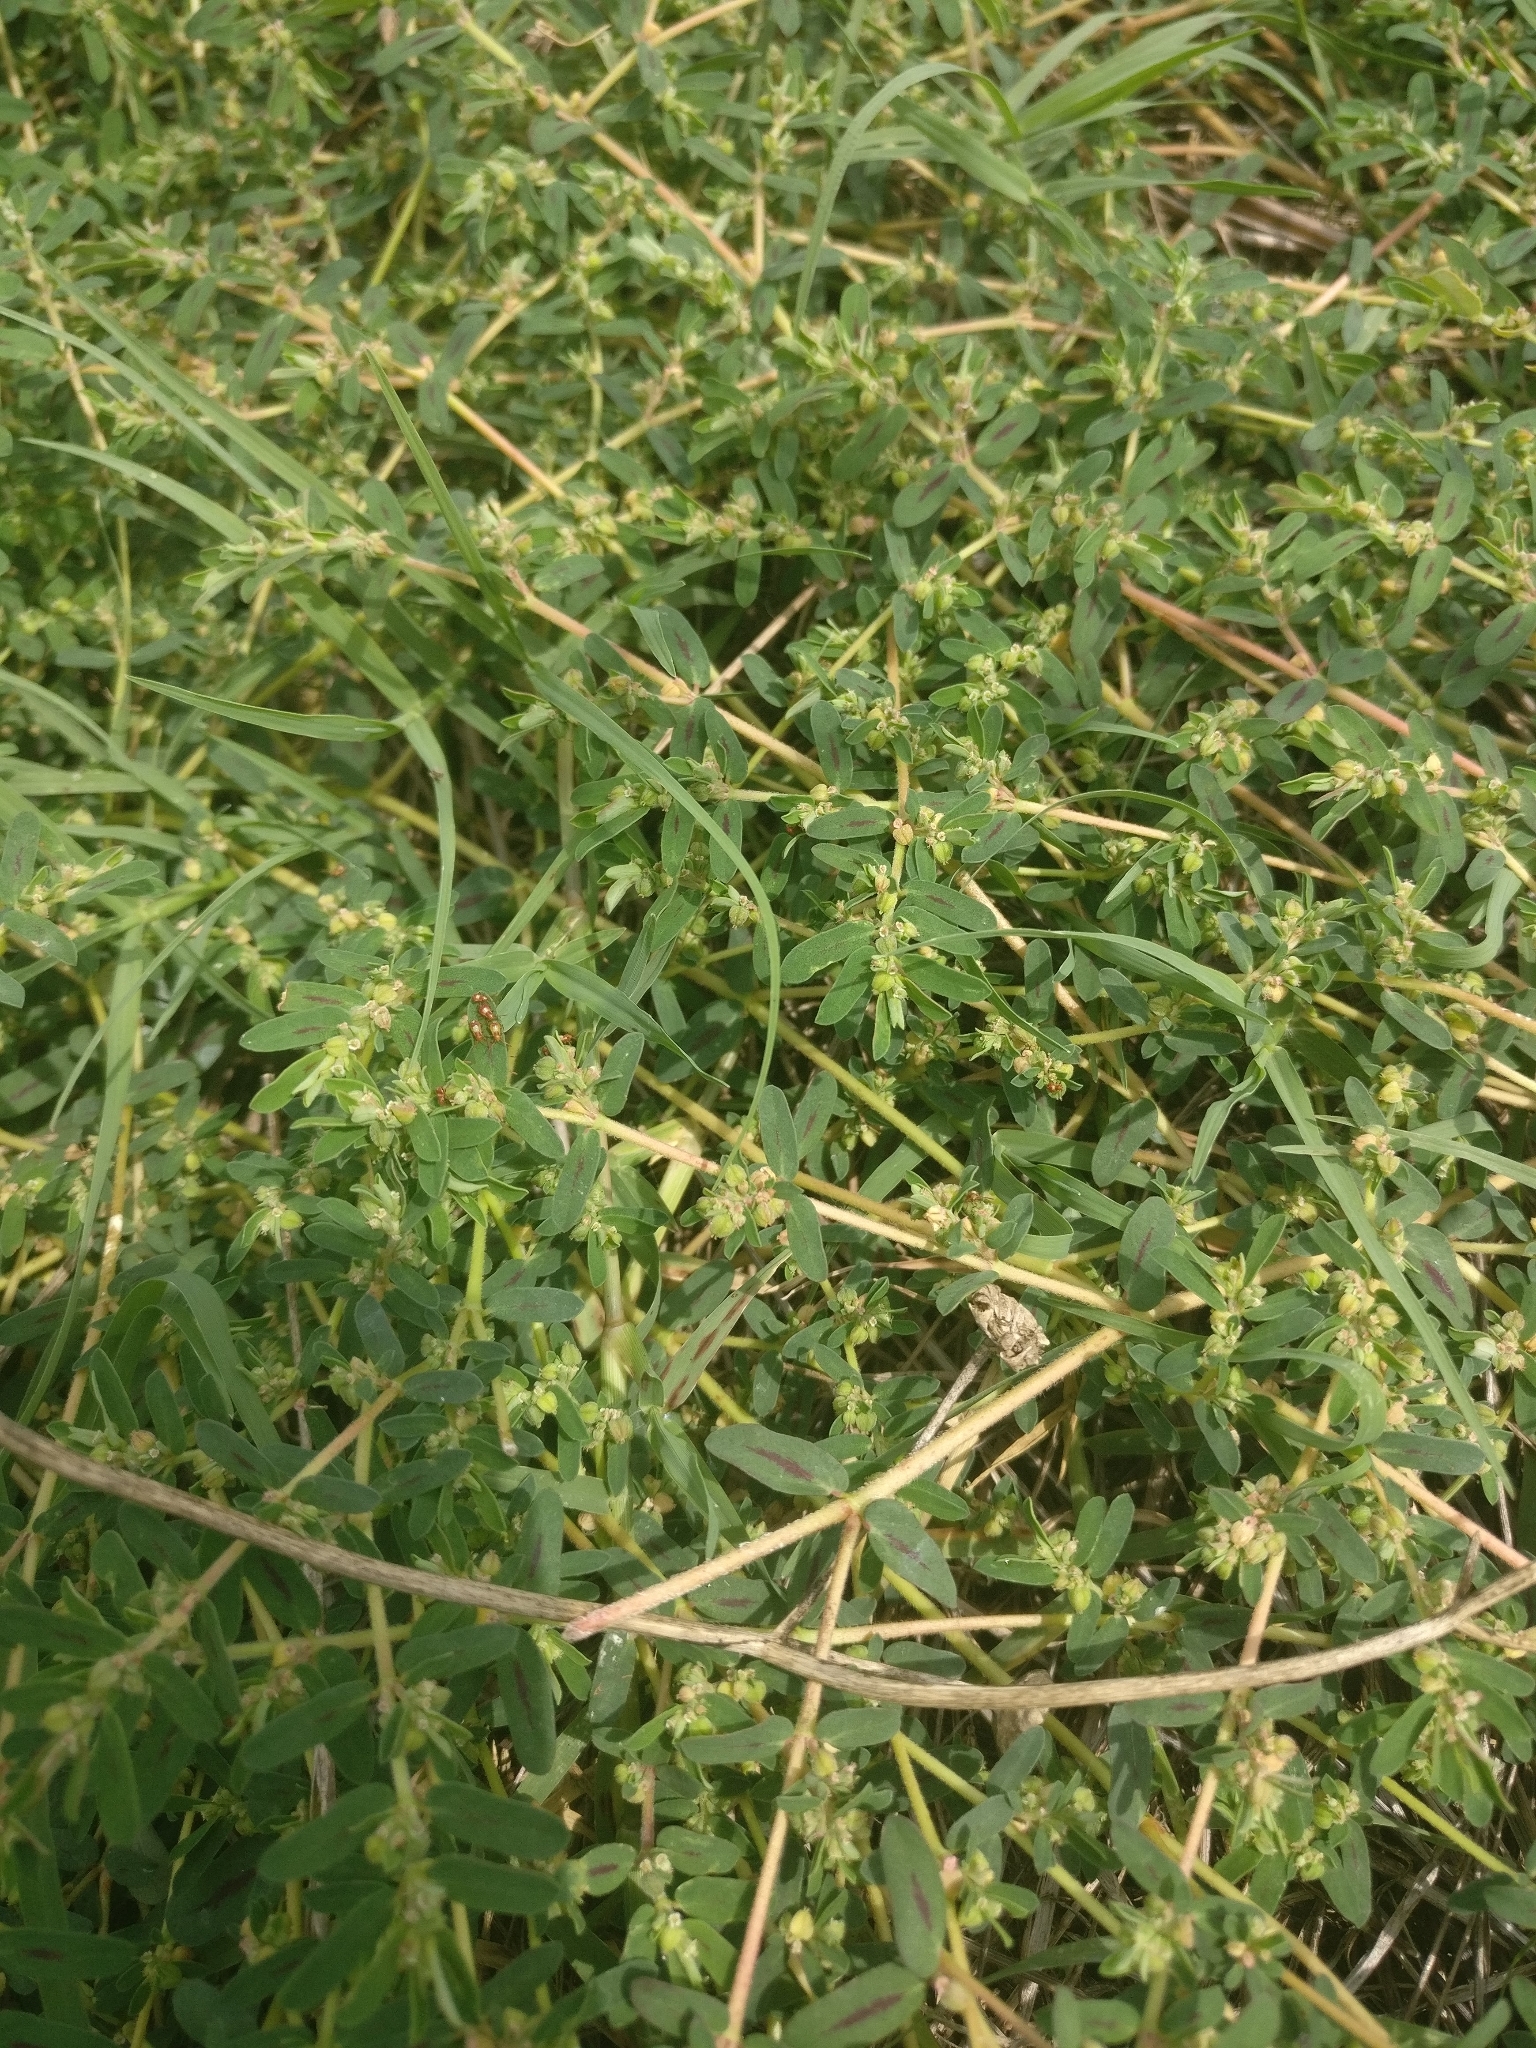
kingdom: Plantae
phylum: Tracheophyta
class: Magnoliopsida
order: Malpighiales
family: Euphorbiaceae
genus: Euphorbia
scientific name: Euphorbia maculata
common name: Spotted spurge
